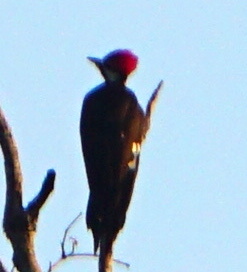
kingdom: Animalia
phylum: Chordata
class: Aves
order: Piciformes
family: Picidae
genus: Dryocopus
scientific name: Dryocopus pileatus
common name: Pileated woodpecker
